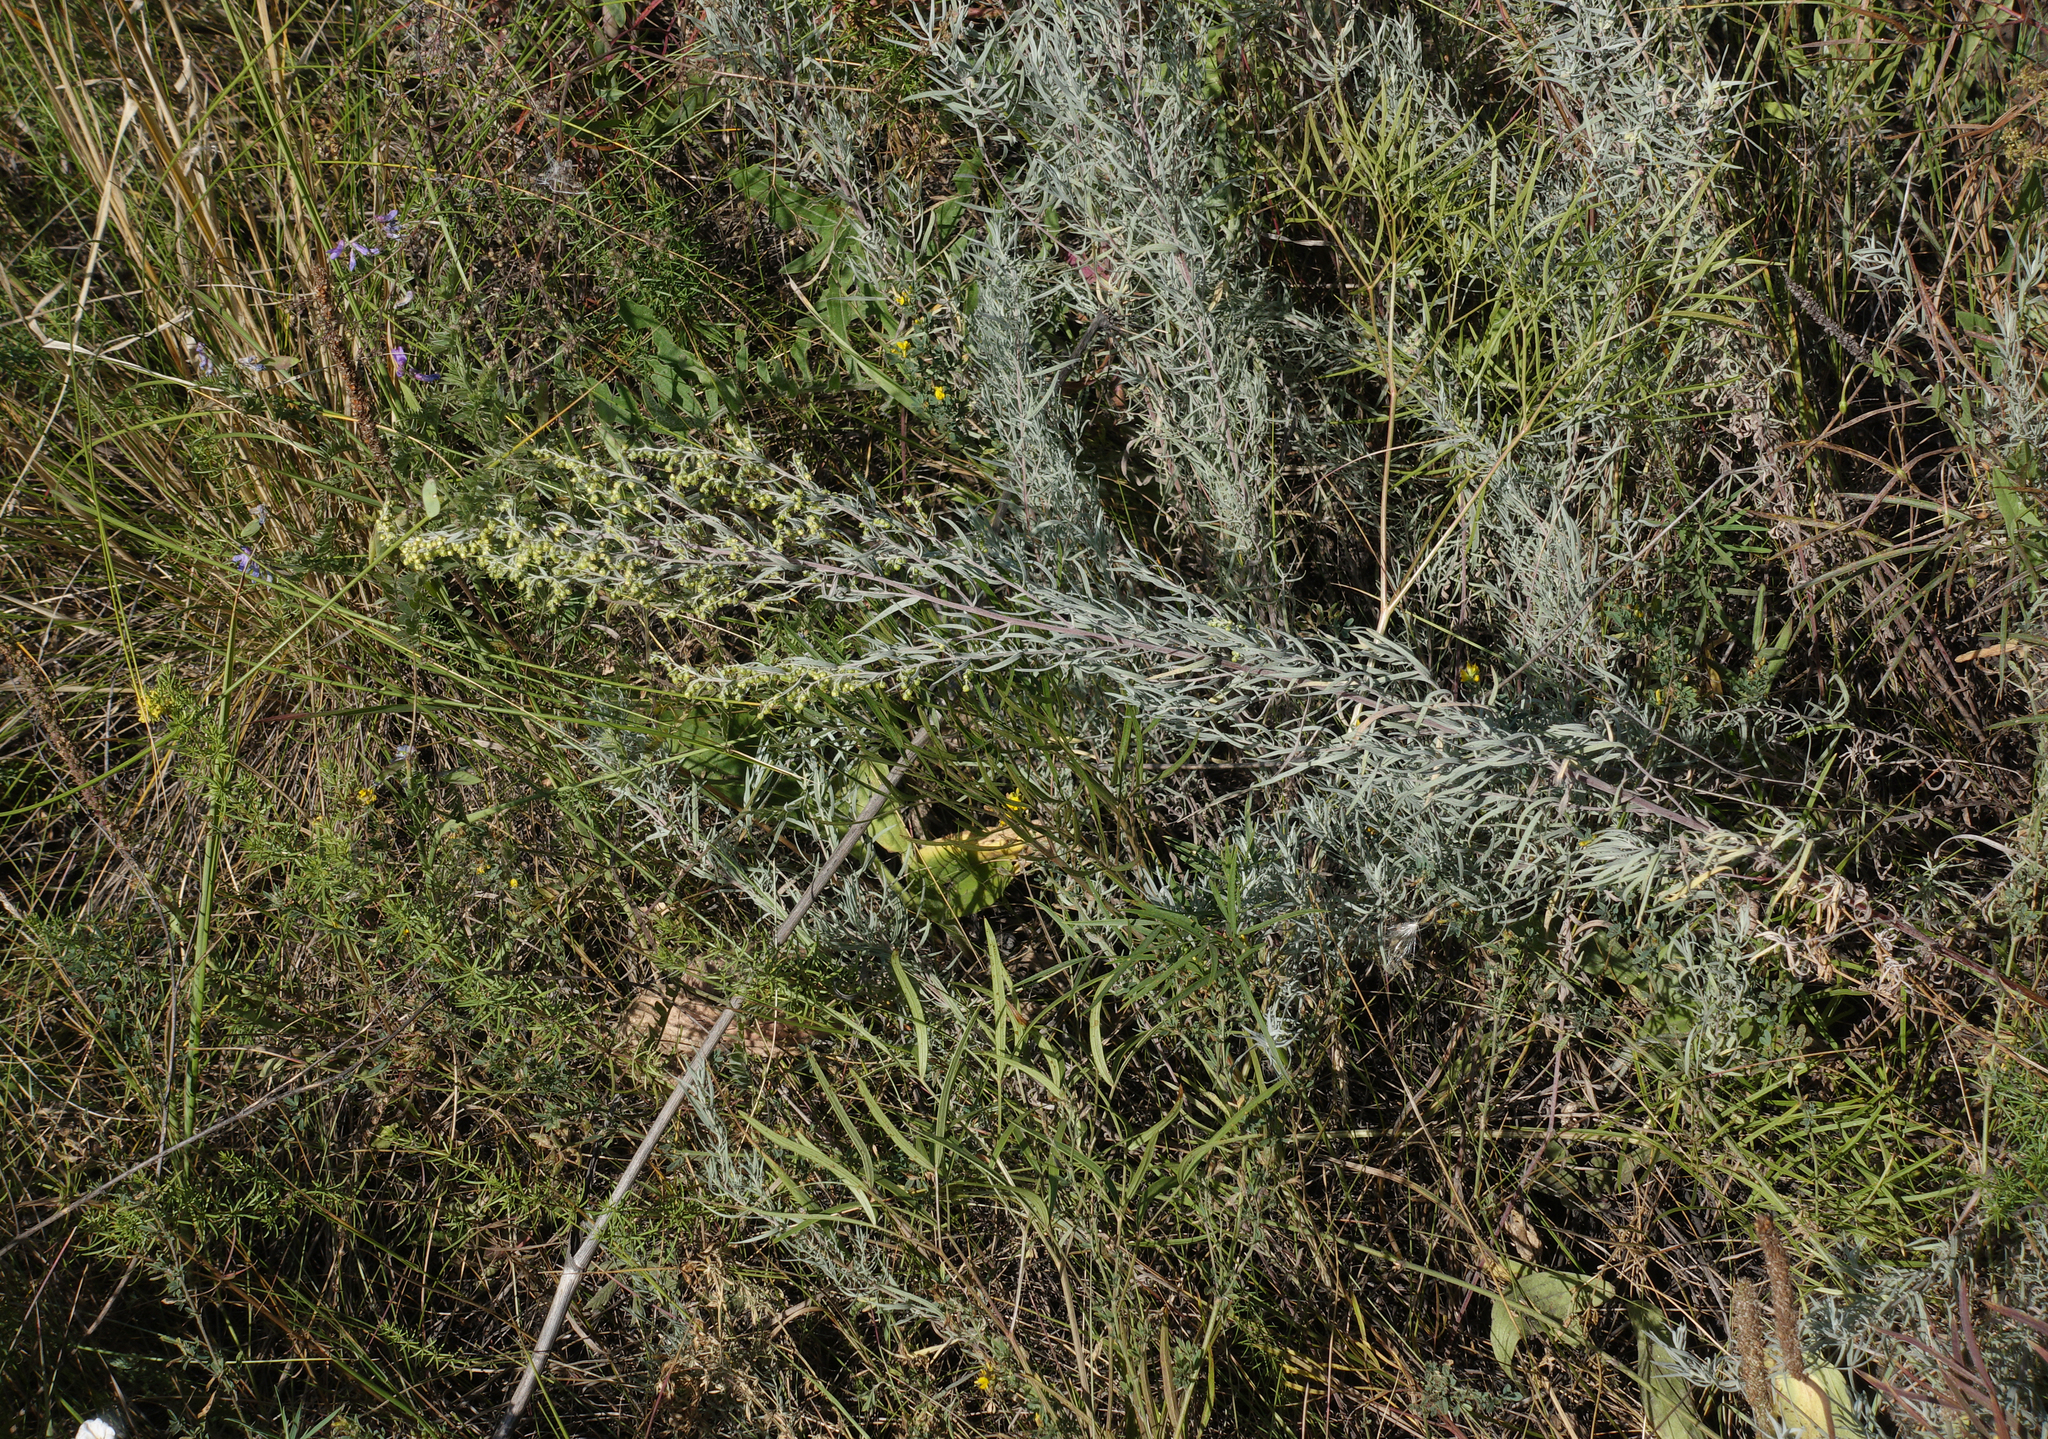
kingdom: Plantae
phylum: Tracheophyta
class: Magnoliopsida
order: Asterales
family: Asteraceae
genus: Artemisia
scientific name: Artemisia glauca
